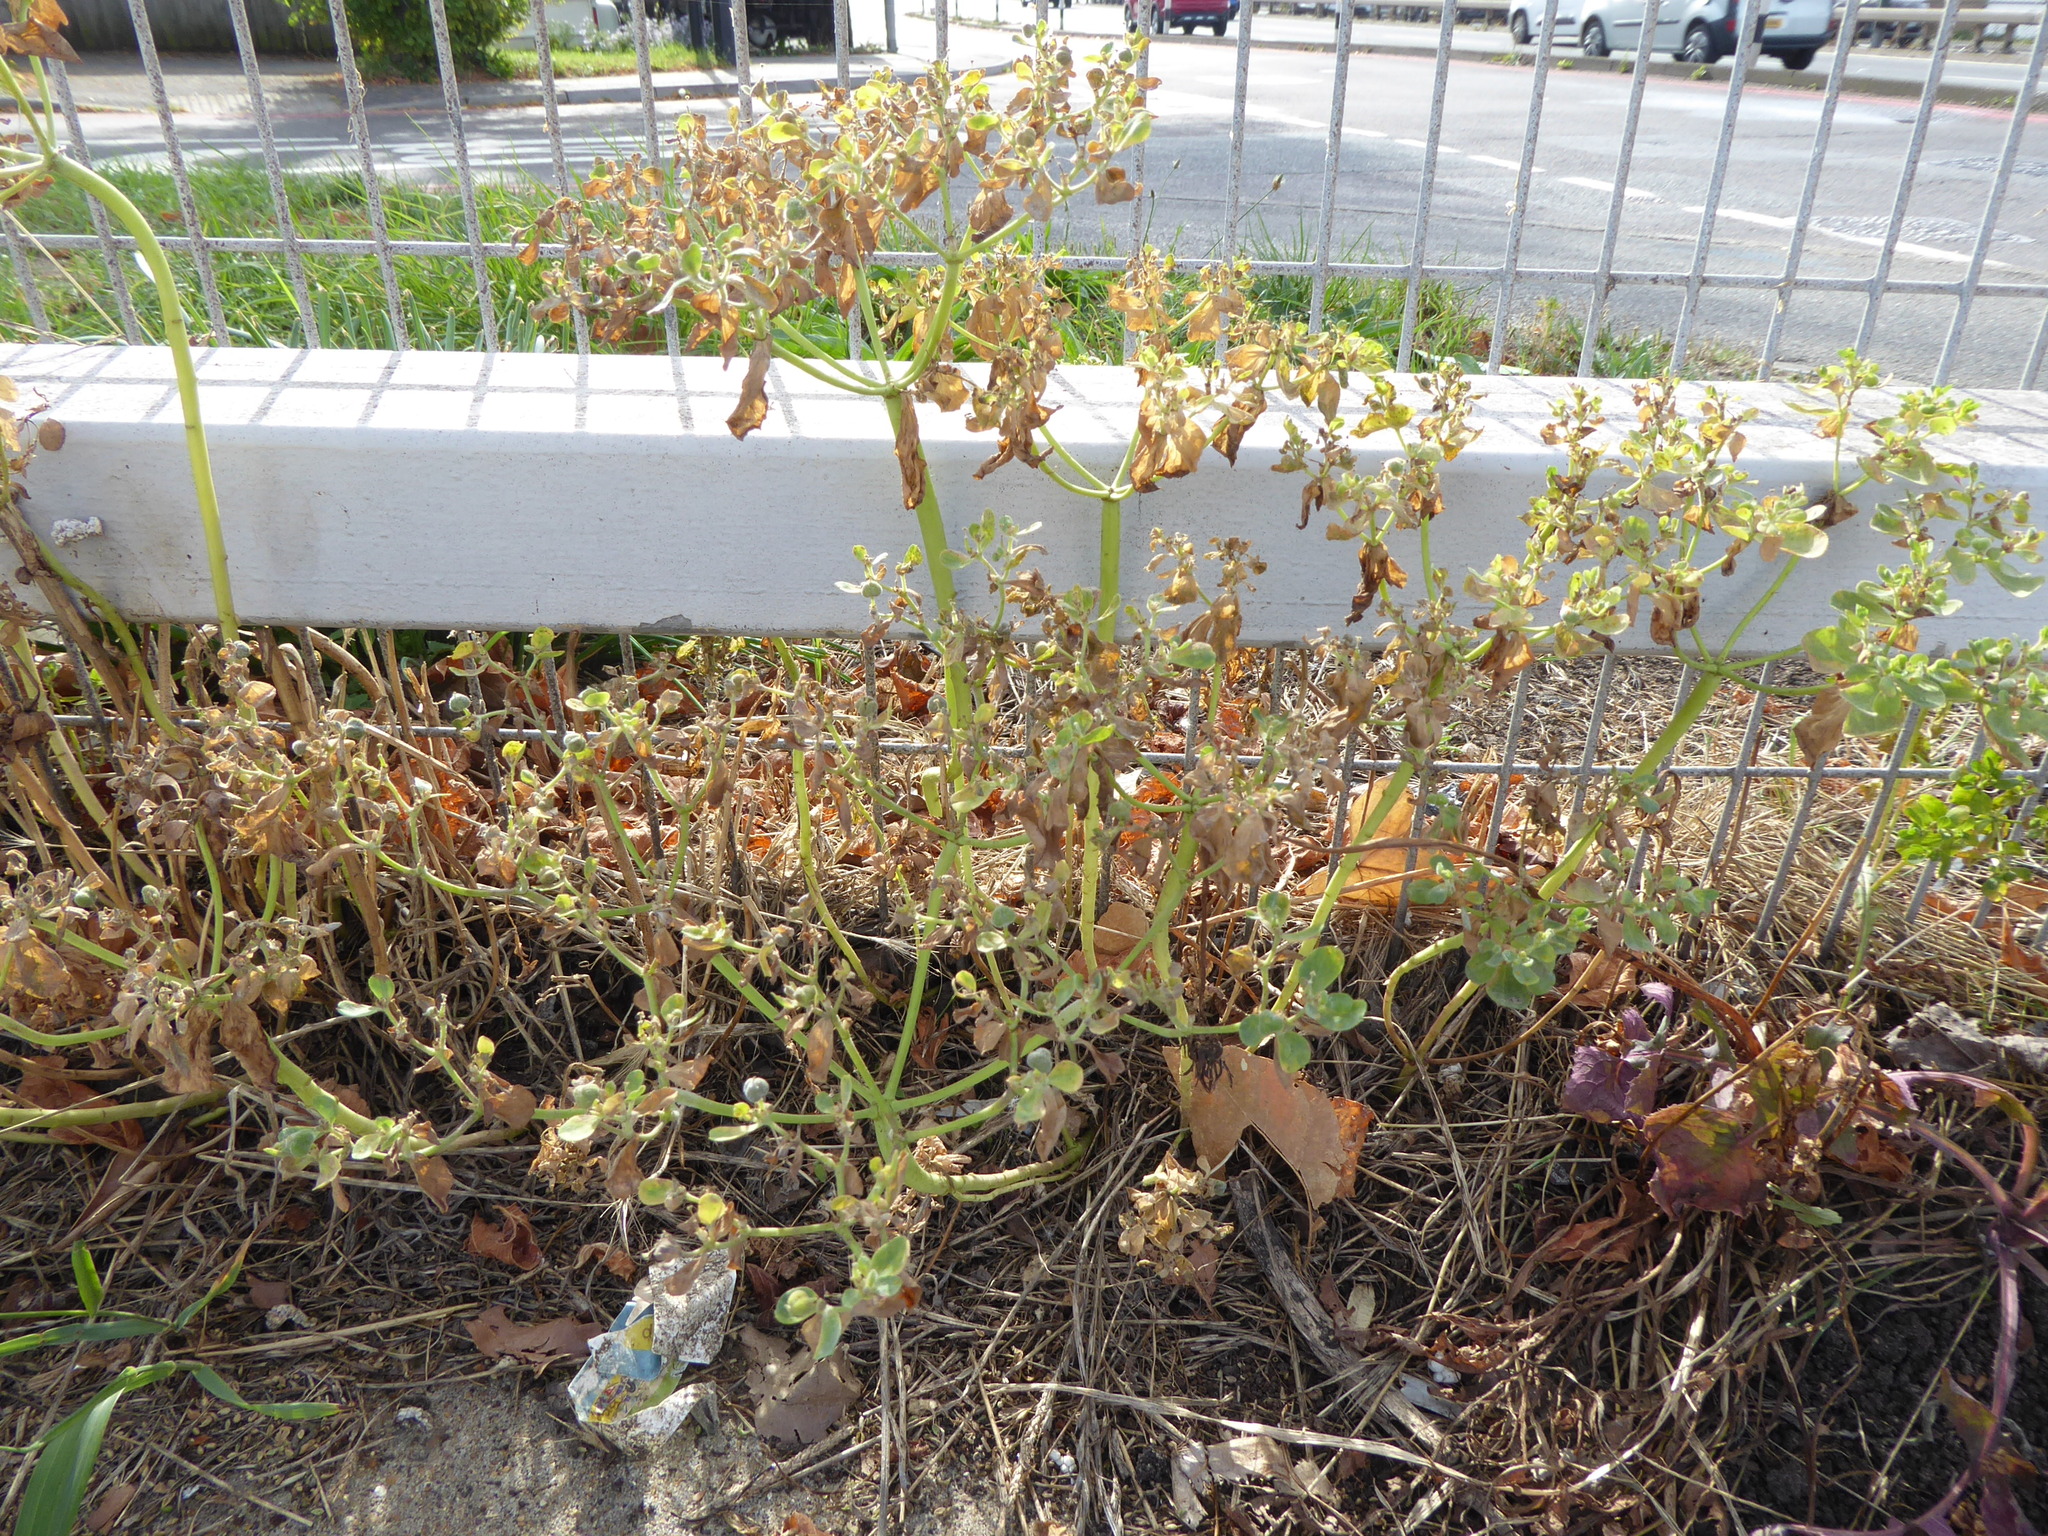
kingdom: Plantae
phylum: Tracheophyta
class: Magnoliopsida
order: Malpighiales
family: Euphorbiaceae
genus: Euphorbia
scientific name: Euphorbia helioscopia
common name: Sun spurge
